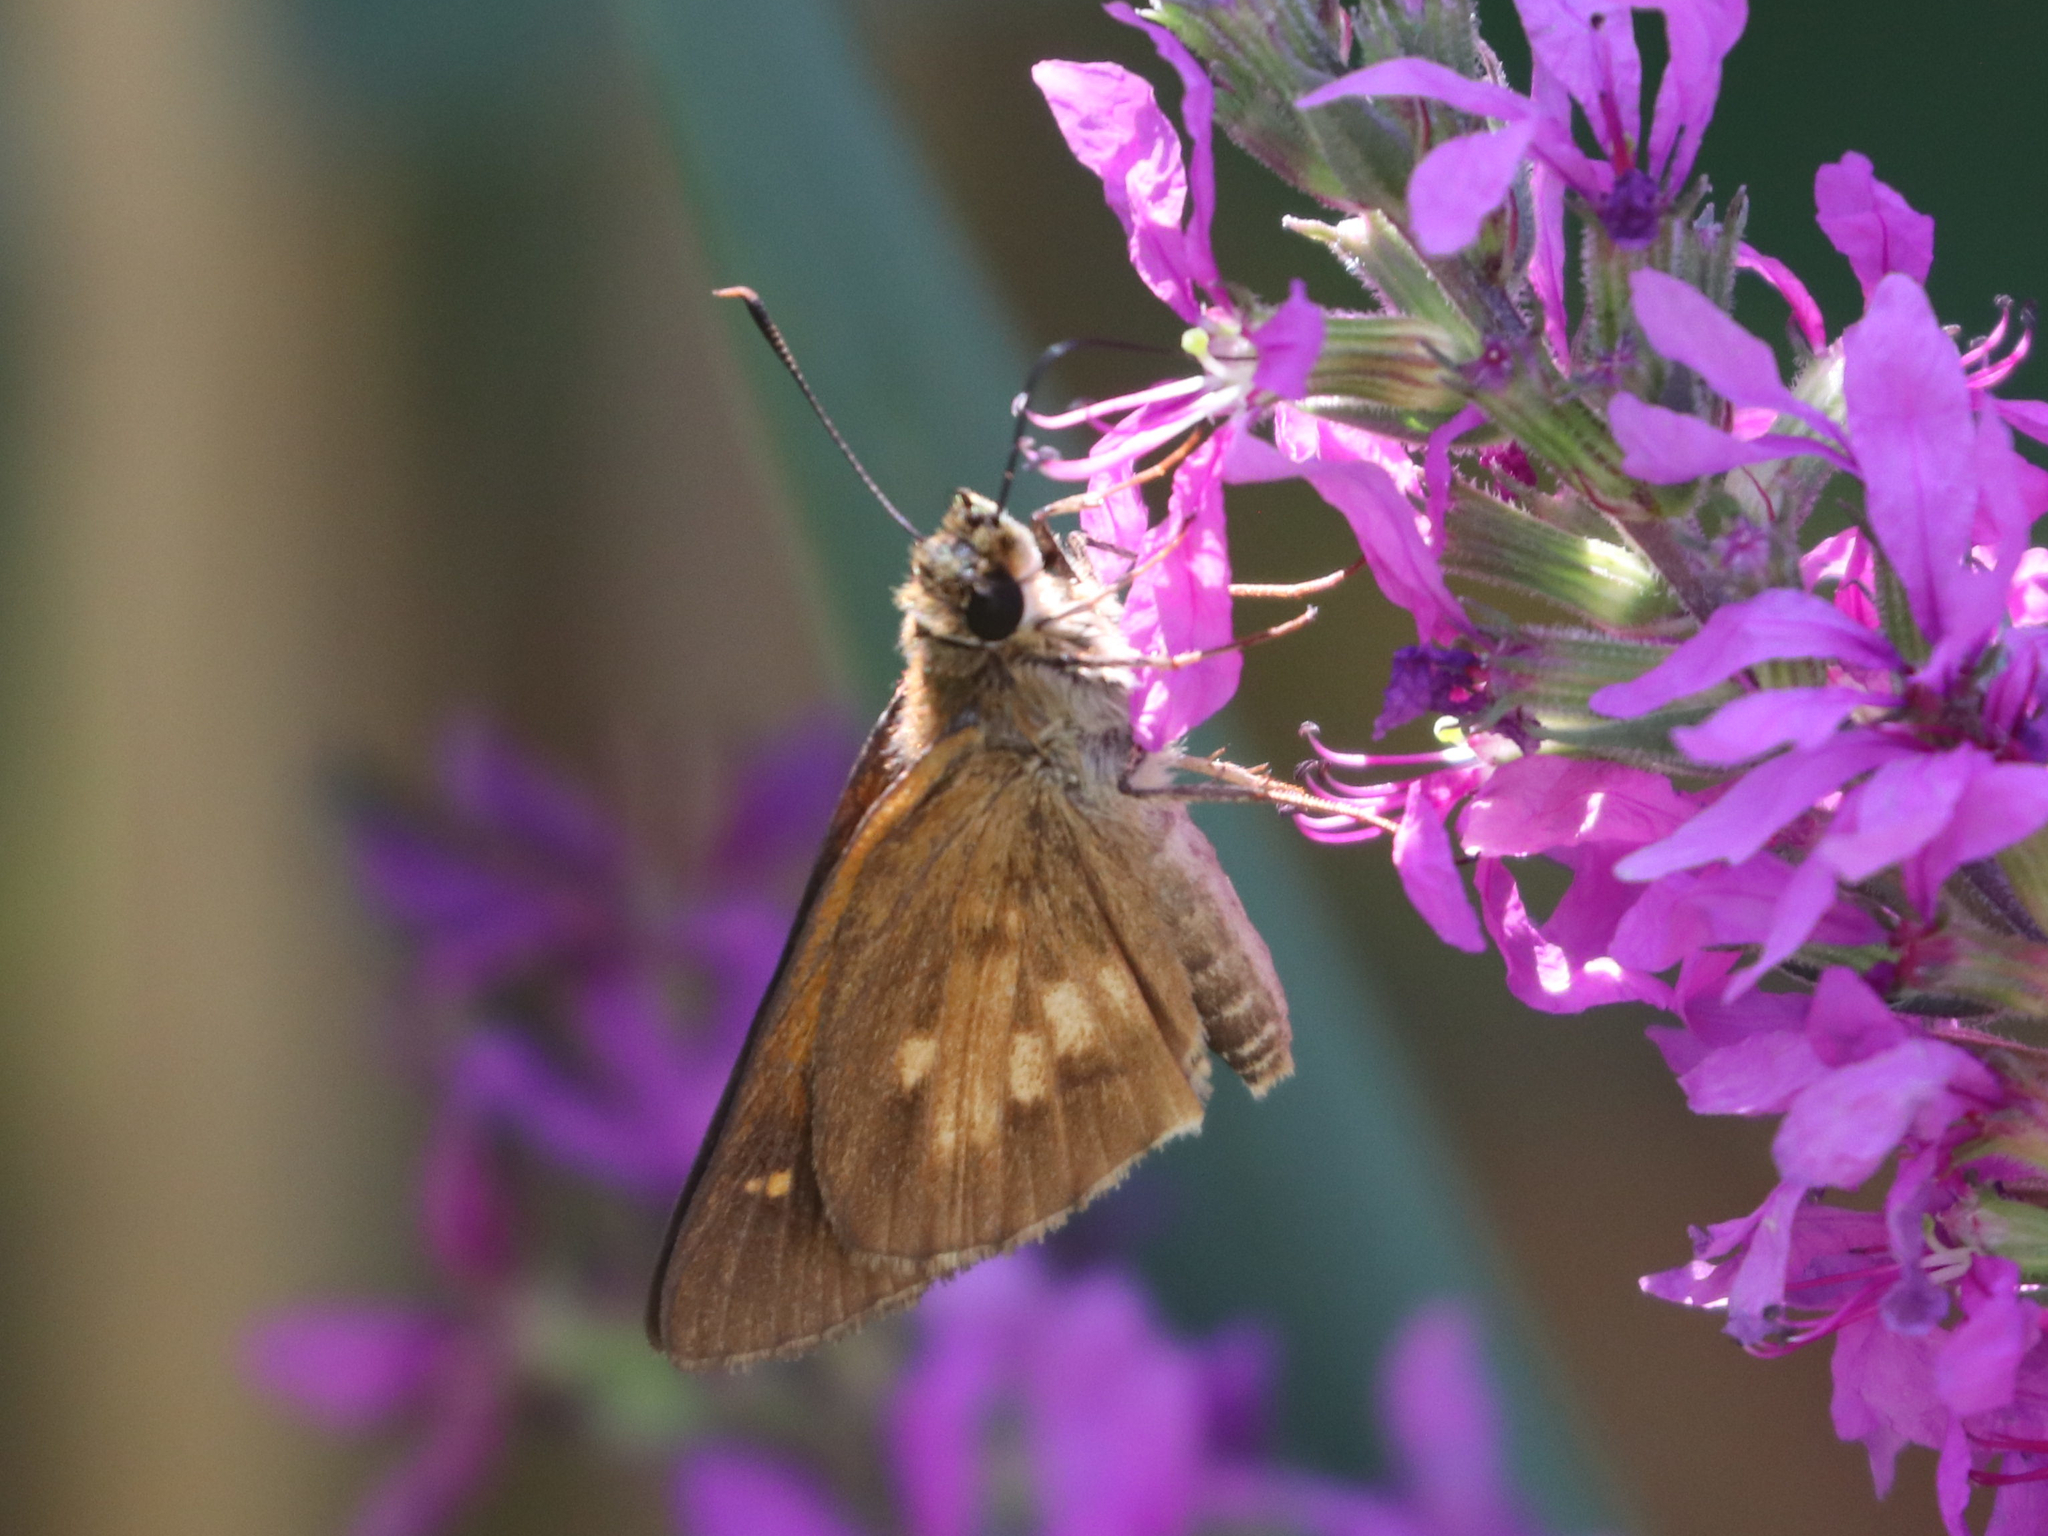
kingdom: Animalia
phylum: Arthropoda
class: Insecta
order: Lepidoptera
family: Hesperiidae
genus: Poanes
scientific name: Poanes viator
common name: Broad-winged skipper
